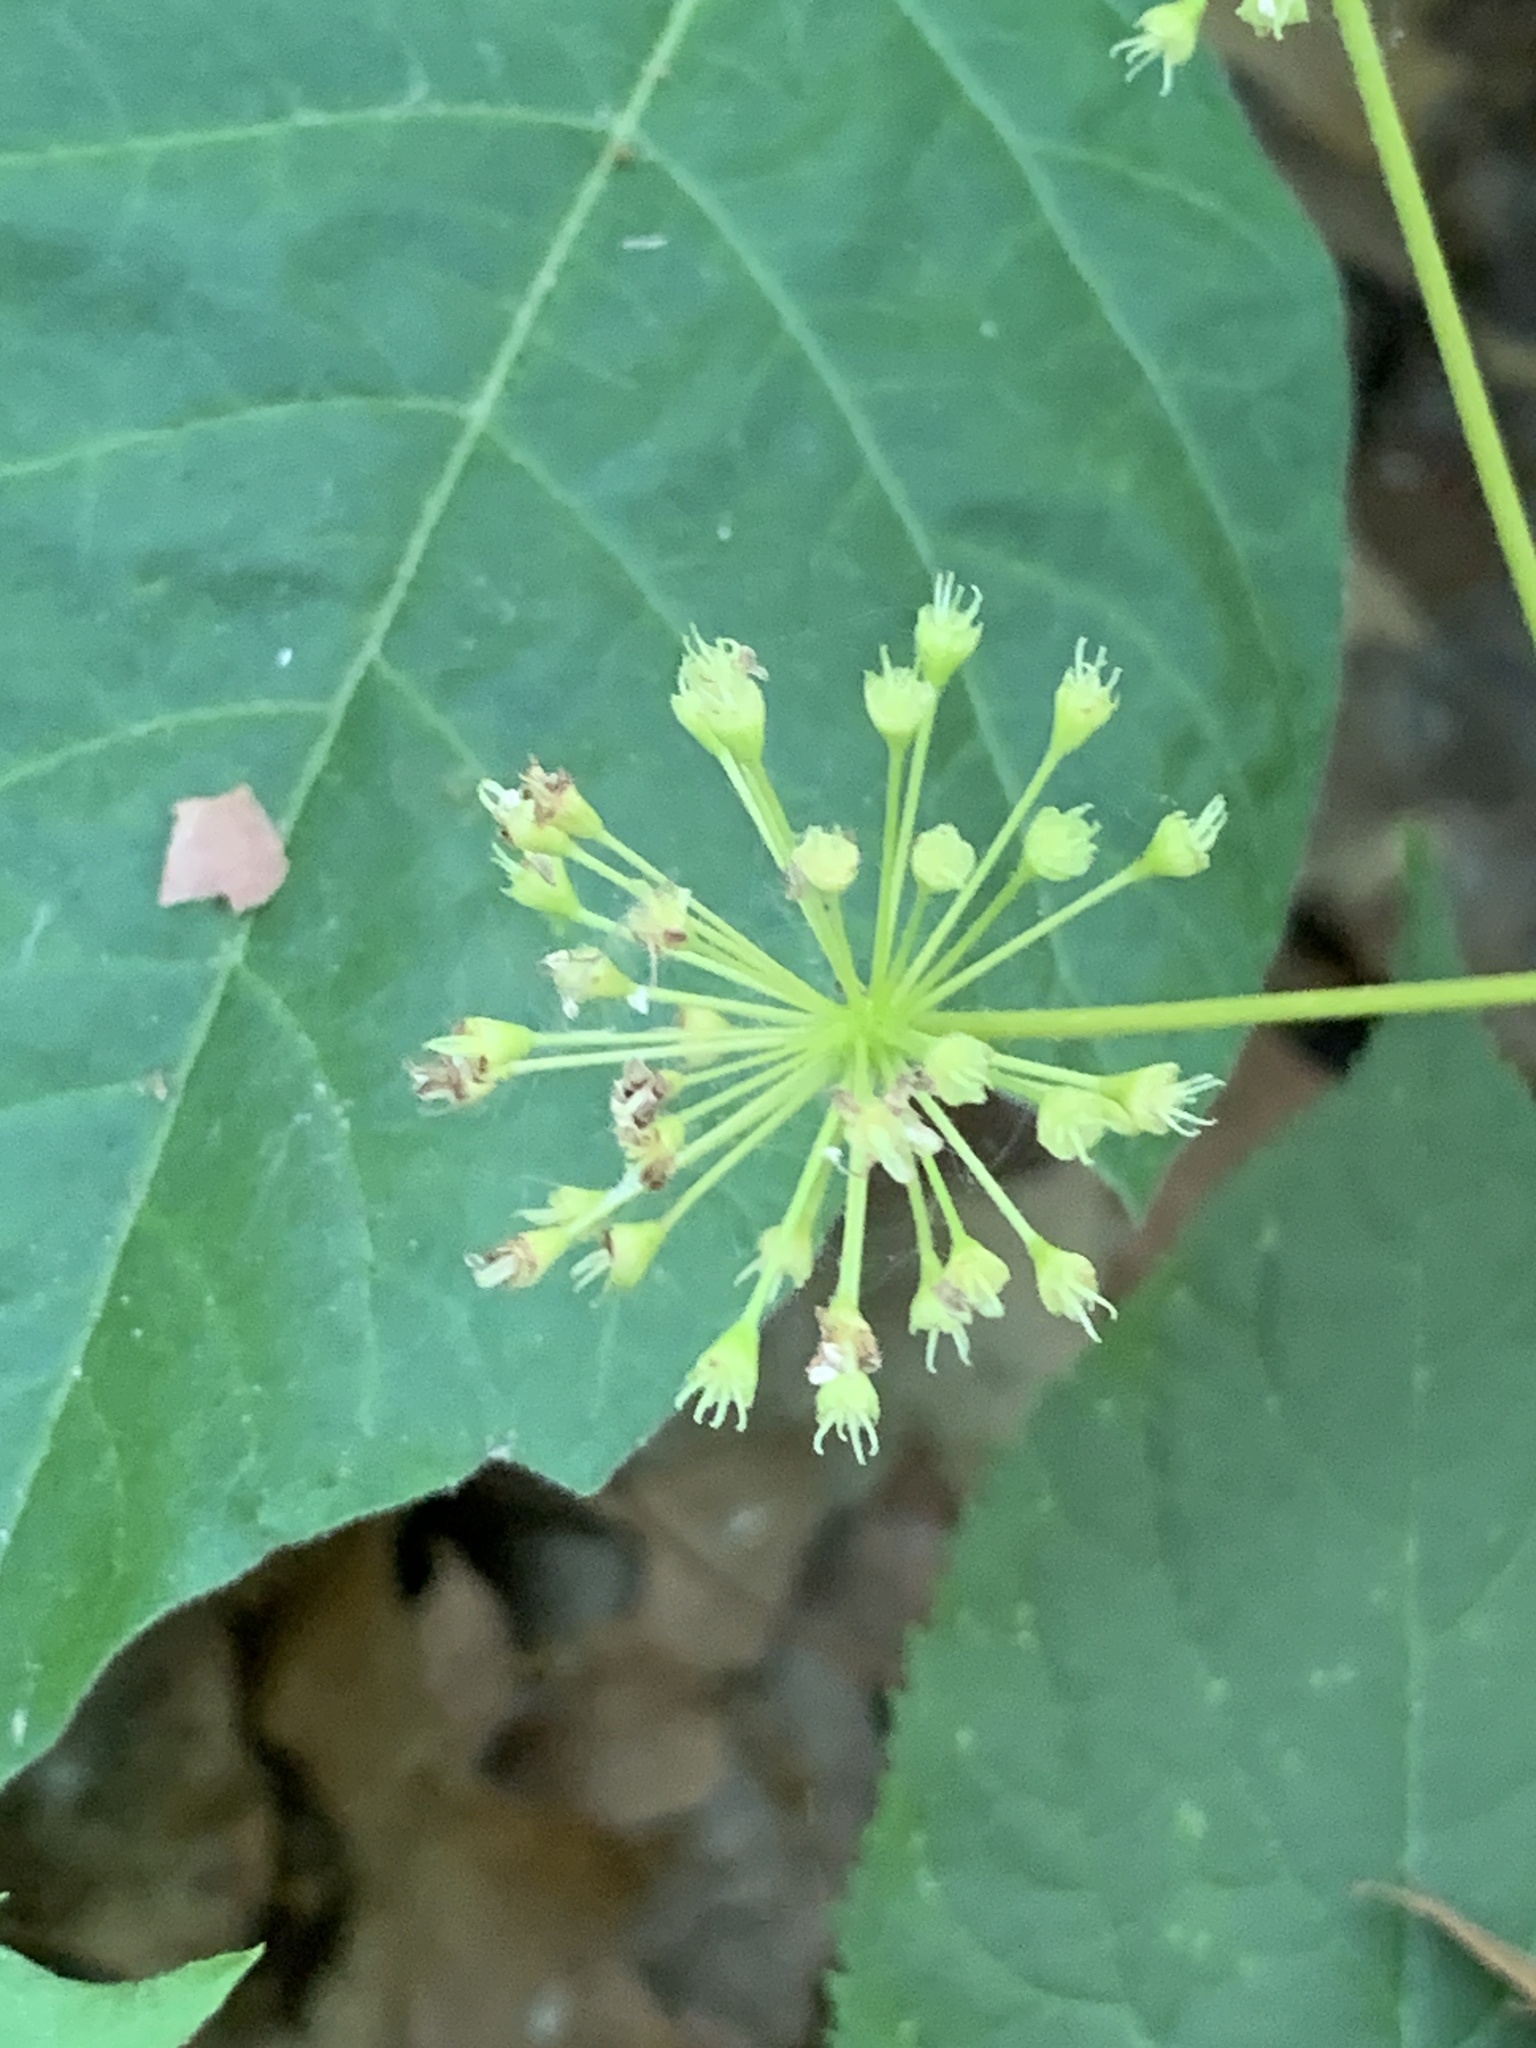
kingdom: Plantae
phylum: Tracheophyta
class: Magnoliopsida
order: Apiales
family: Araliaceae
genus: Aralia
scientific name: Aralia nudicaulis
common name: Wild sarsaparilla
